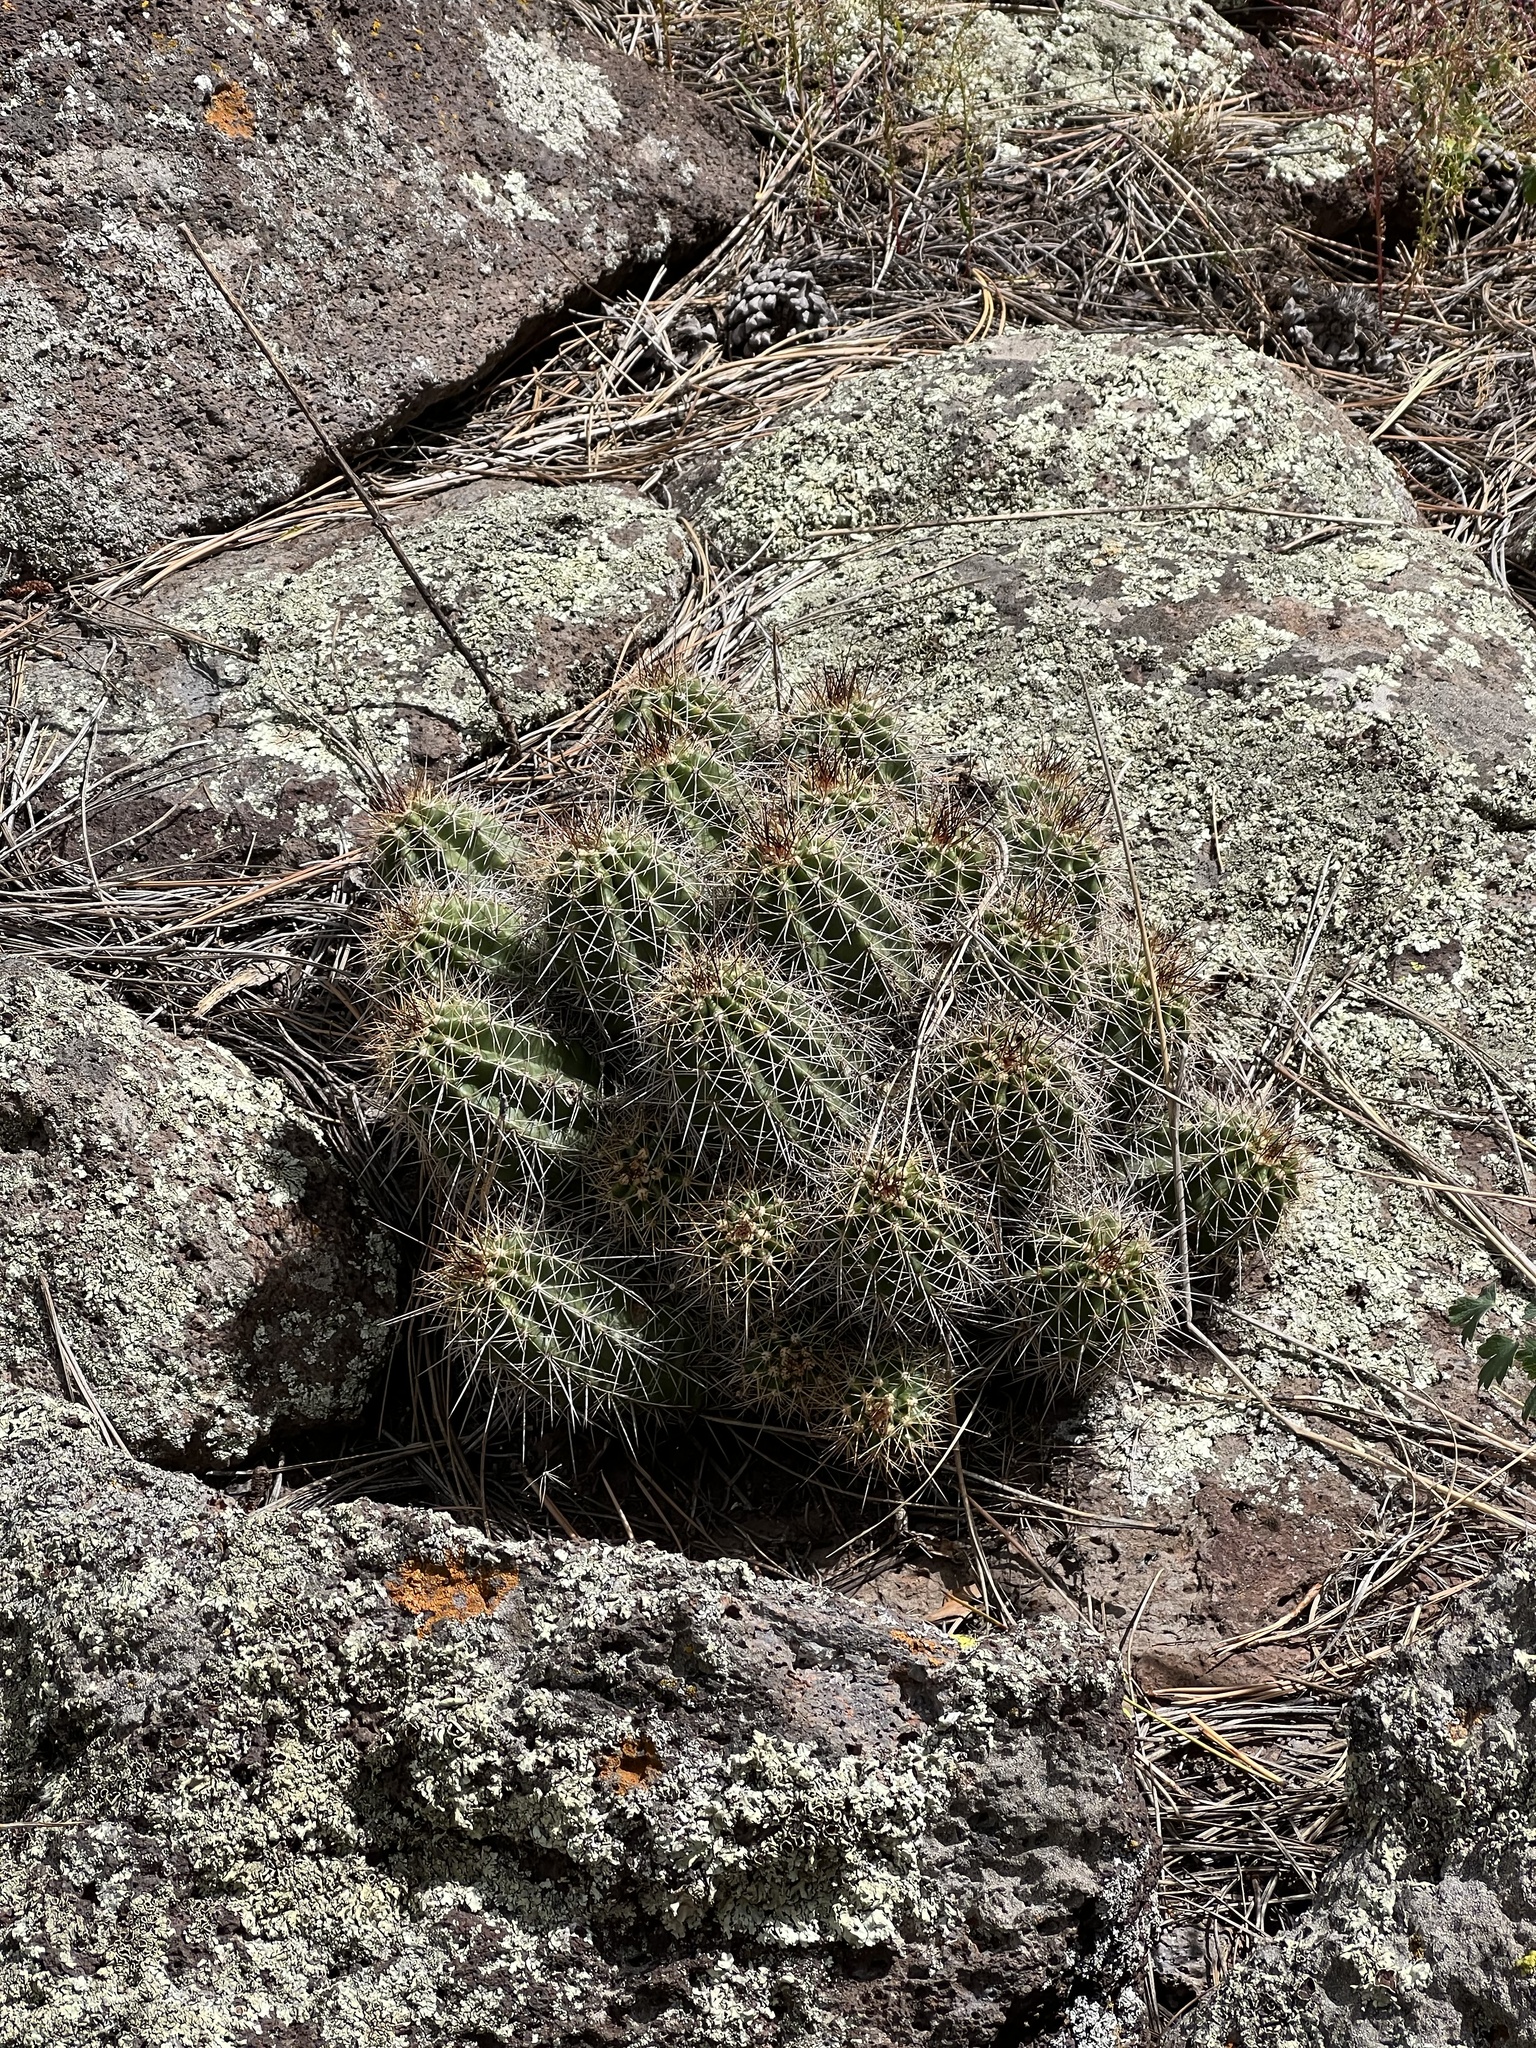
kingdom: Plantae
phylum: Tracheophyta
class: Magnoliopsida
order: Caryophyllales
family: Cactaceae
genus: Echinocereus
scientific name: Echinocereus bakeri
